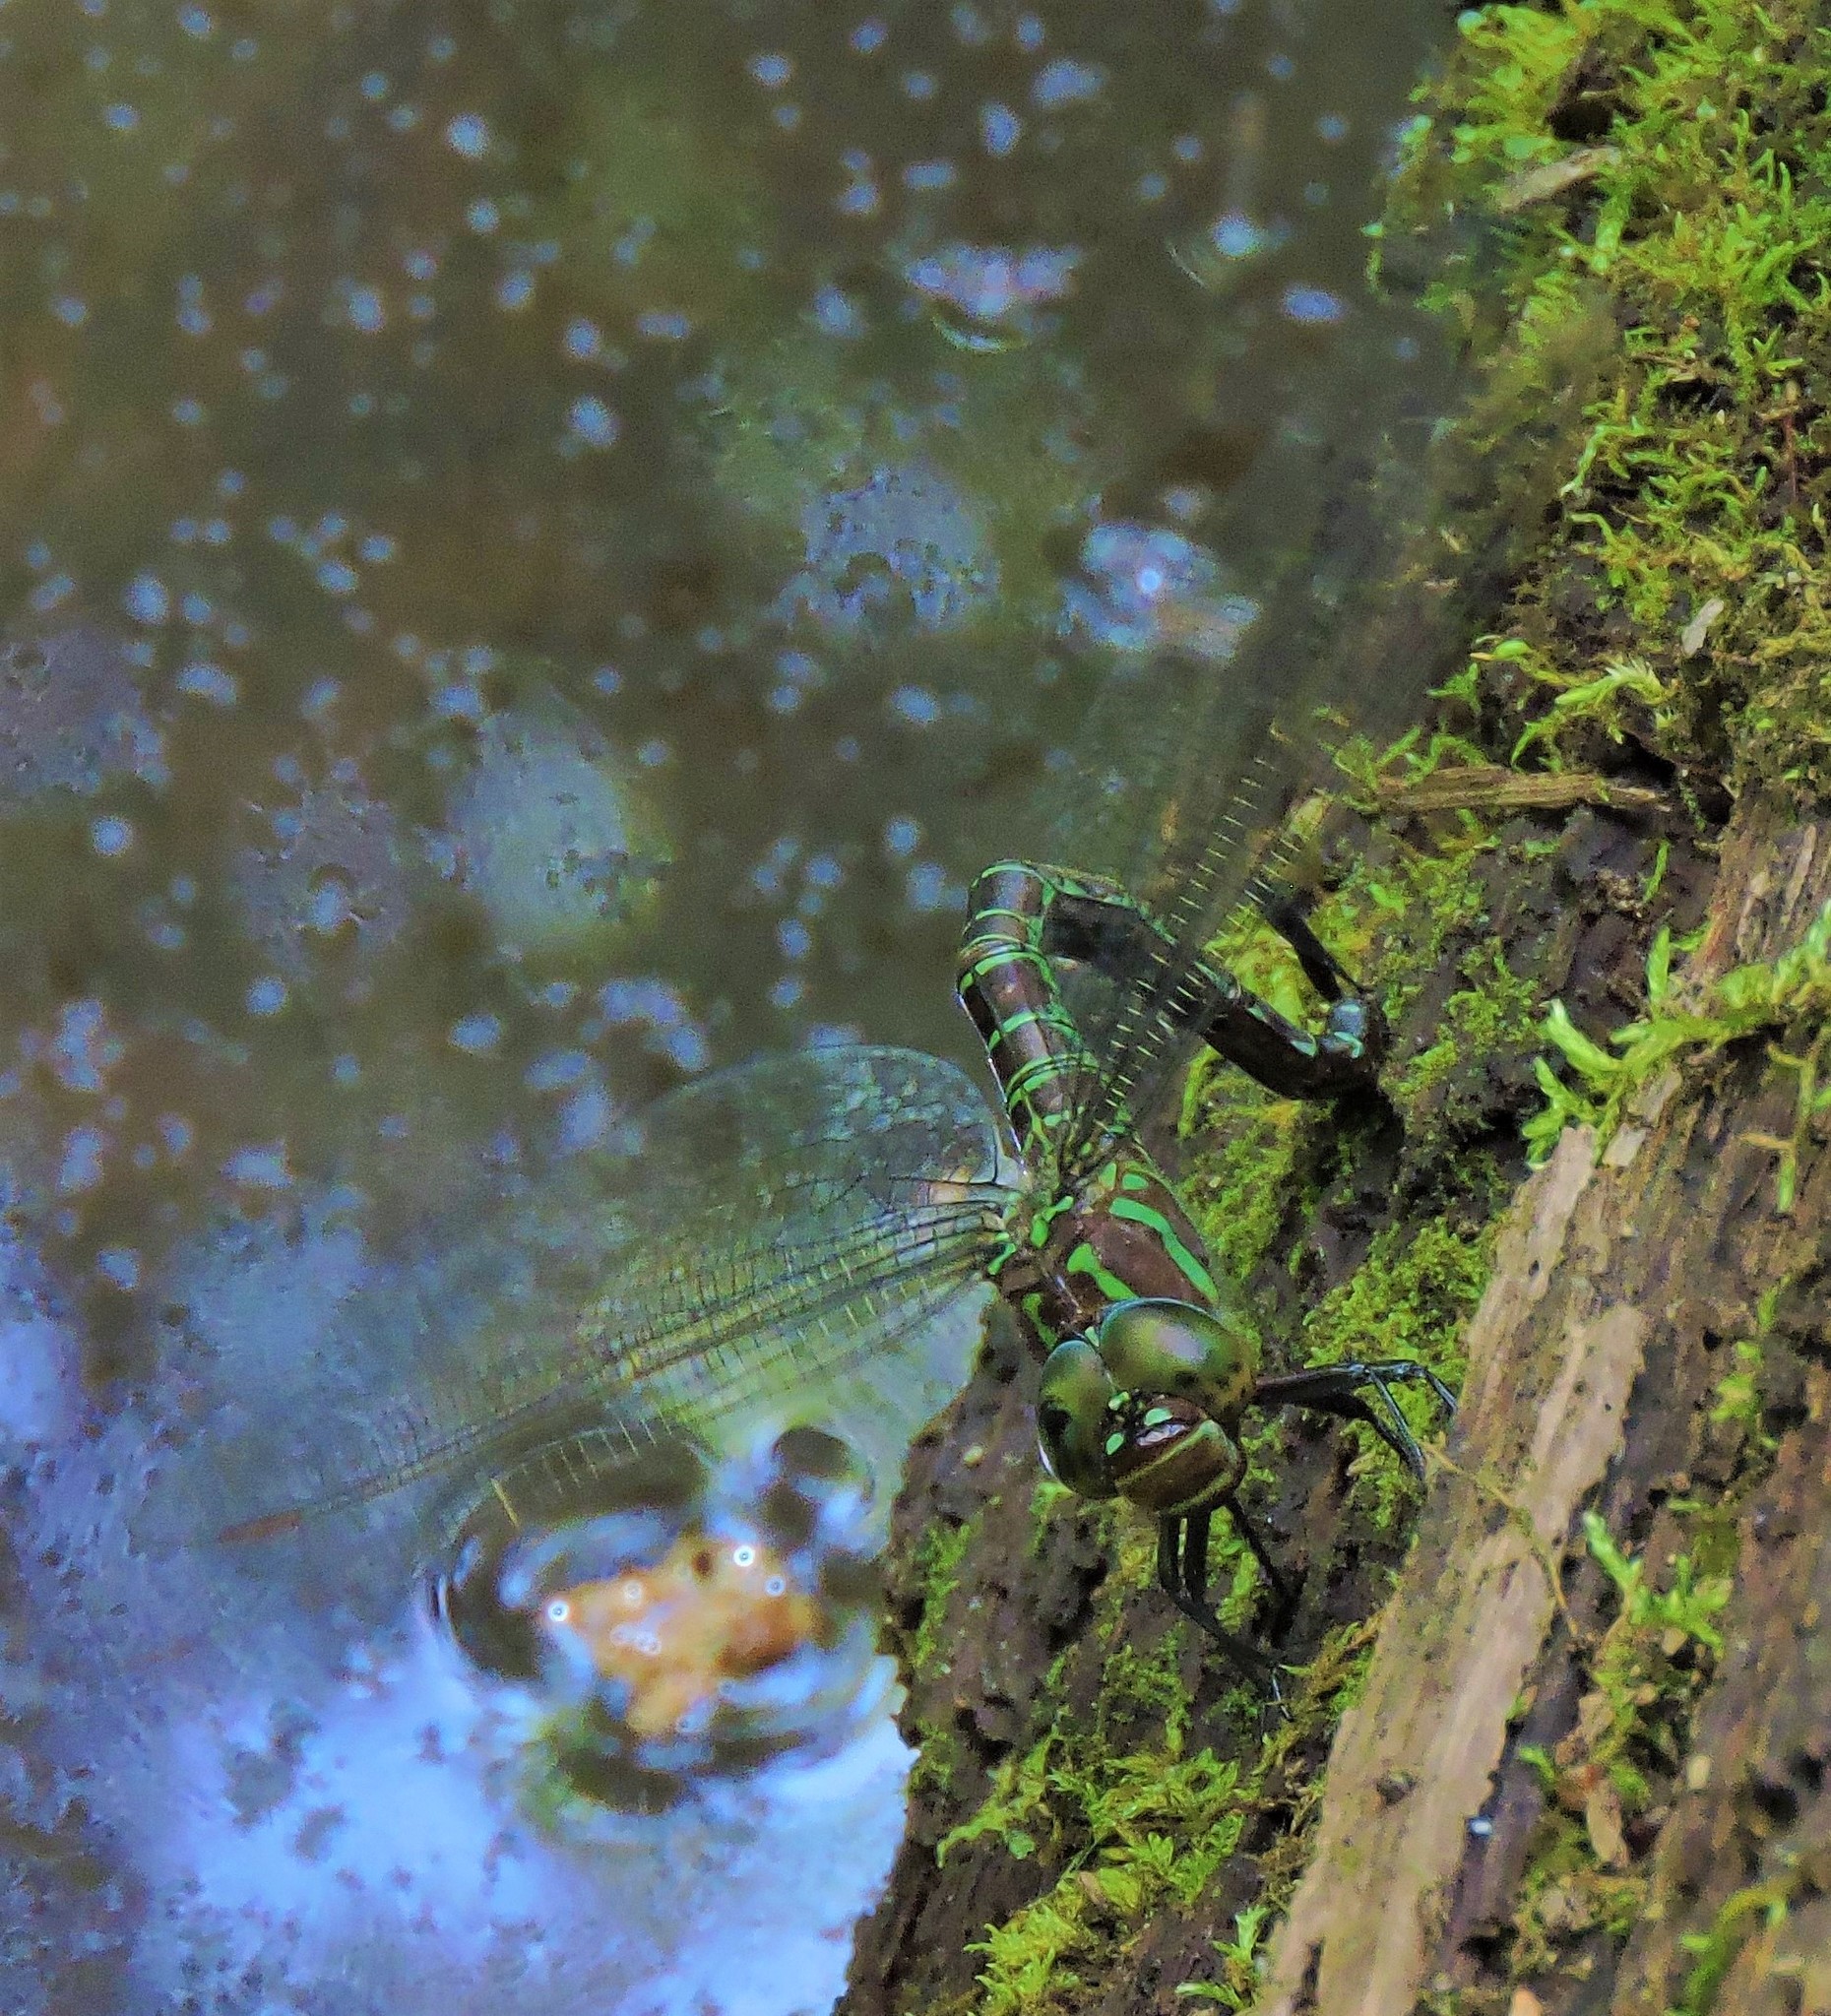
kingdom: Animalia
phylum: Arthropoda
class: Insecta
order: Odonata
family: Aeshnidae
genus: Epiaeschna
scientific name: Epiaeschna heros
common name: Swamp darner
